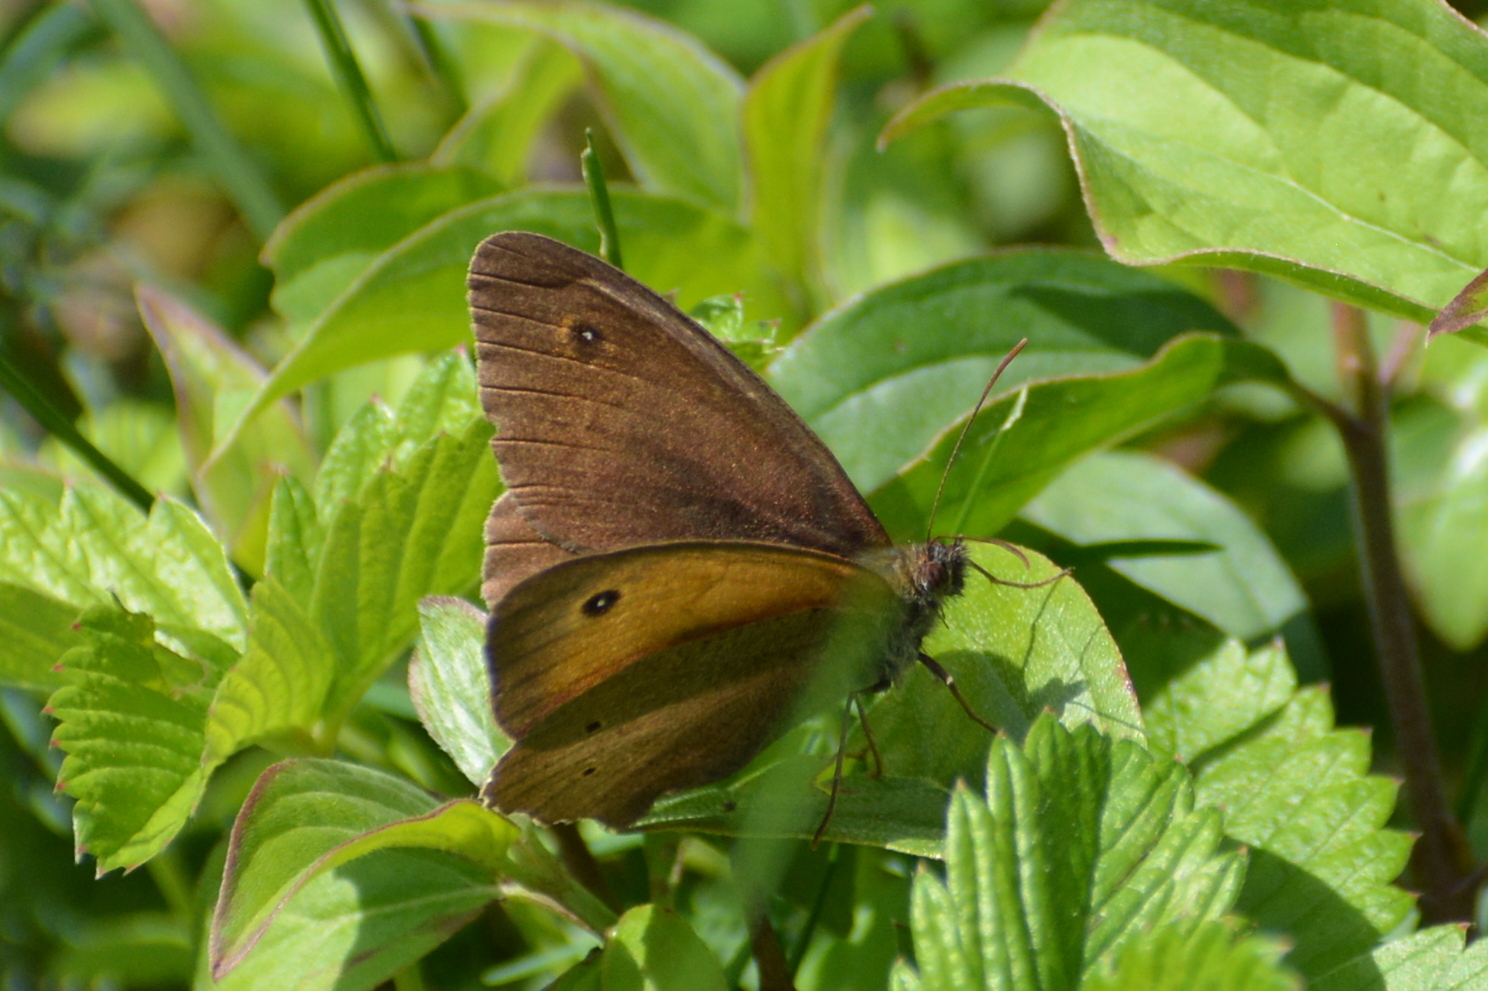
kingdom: Animalia
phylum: Arthropoda
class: Insecta
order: Lepidoptera
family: Nymphalidae
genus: Maniola
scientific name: Maniola jurtina
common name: Meadow brown
